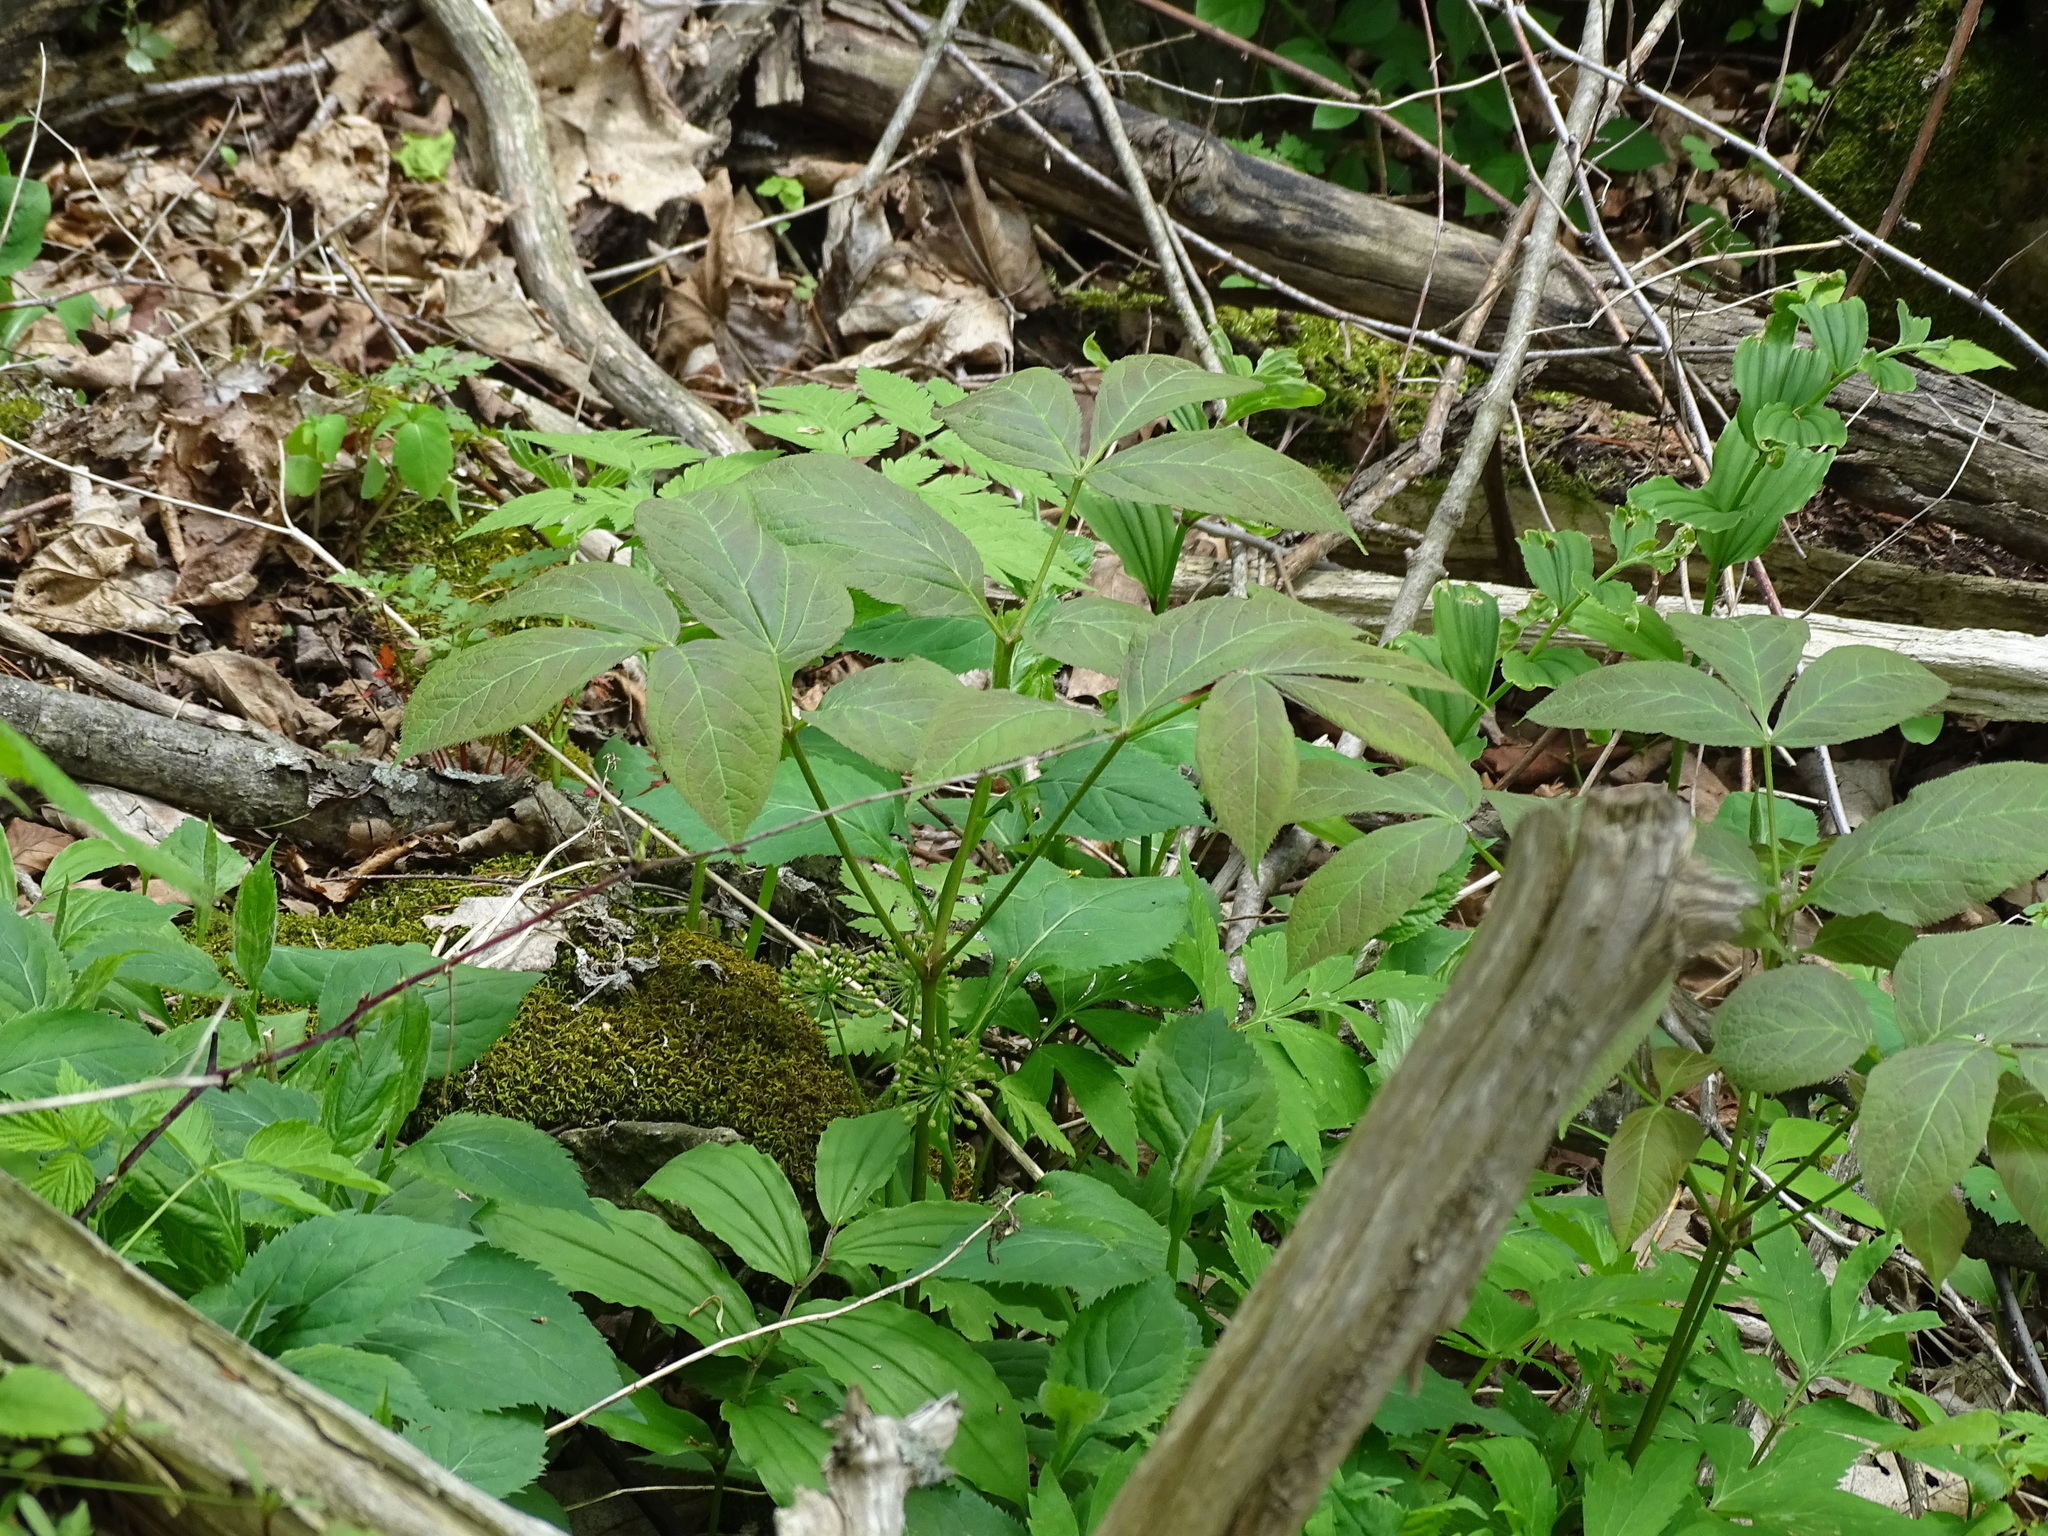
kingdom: Plantae
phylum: Tracheophyta
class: Magnoliopsida
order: Apiales
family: Araliaceae
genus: Aralia
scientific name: Aralia nudicaulis
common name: Wild sarsaparilla
